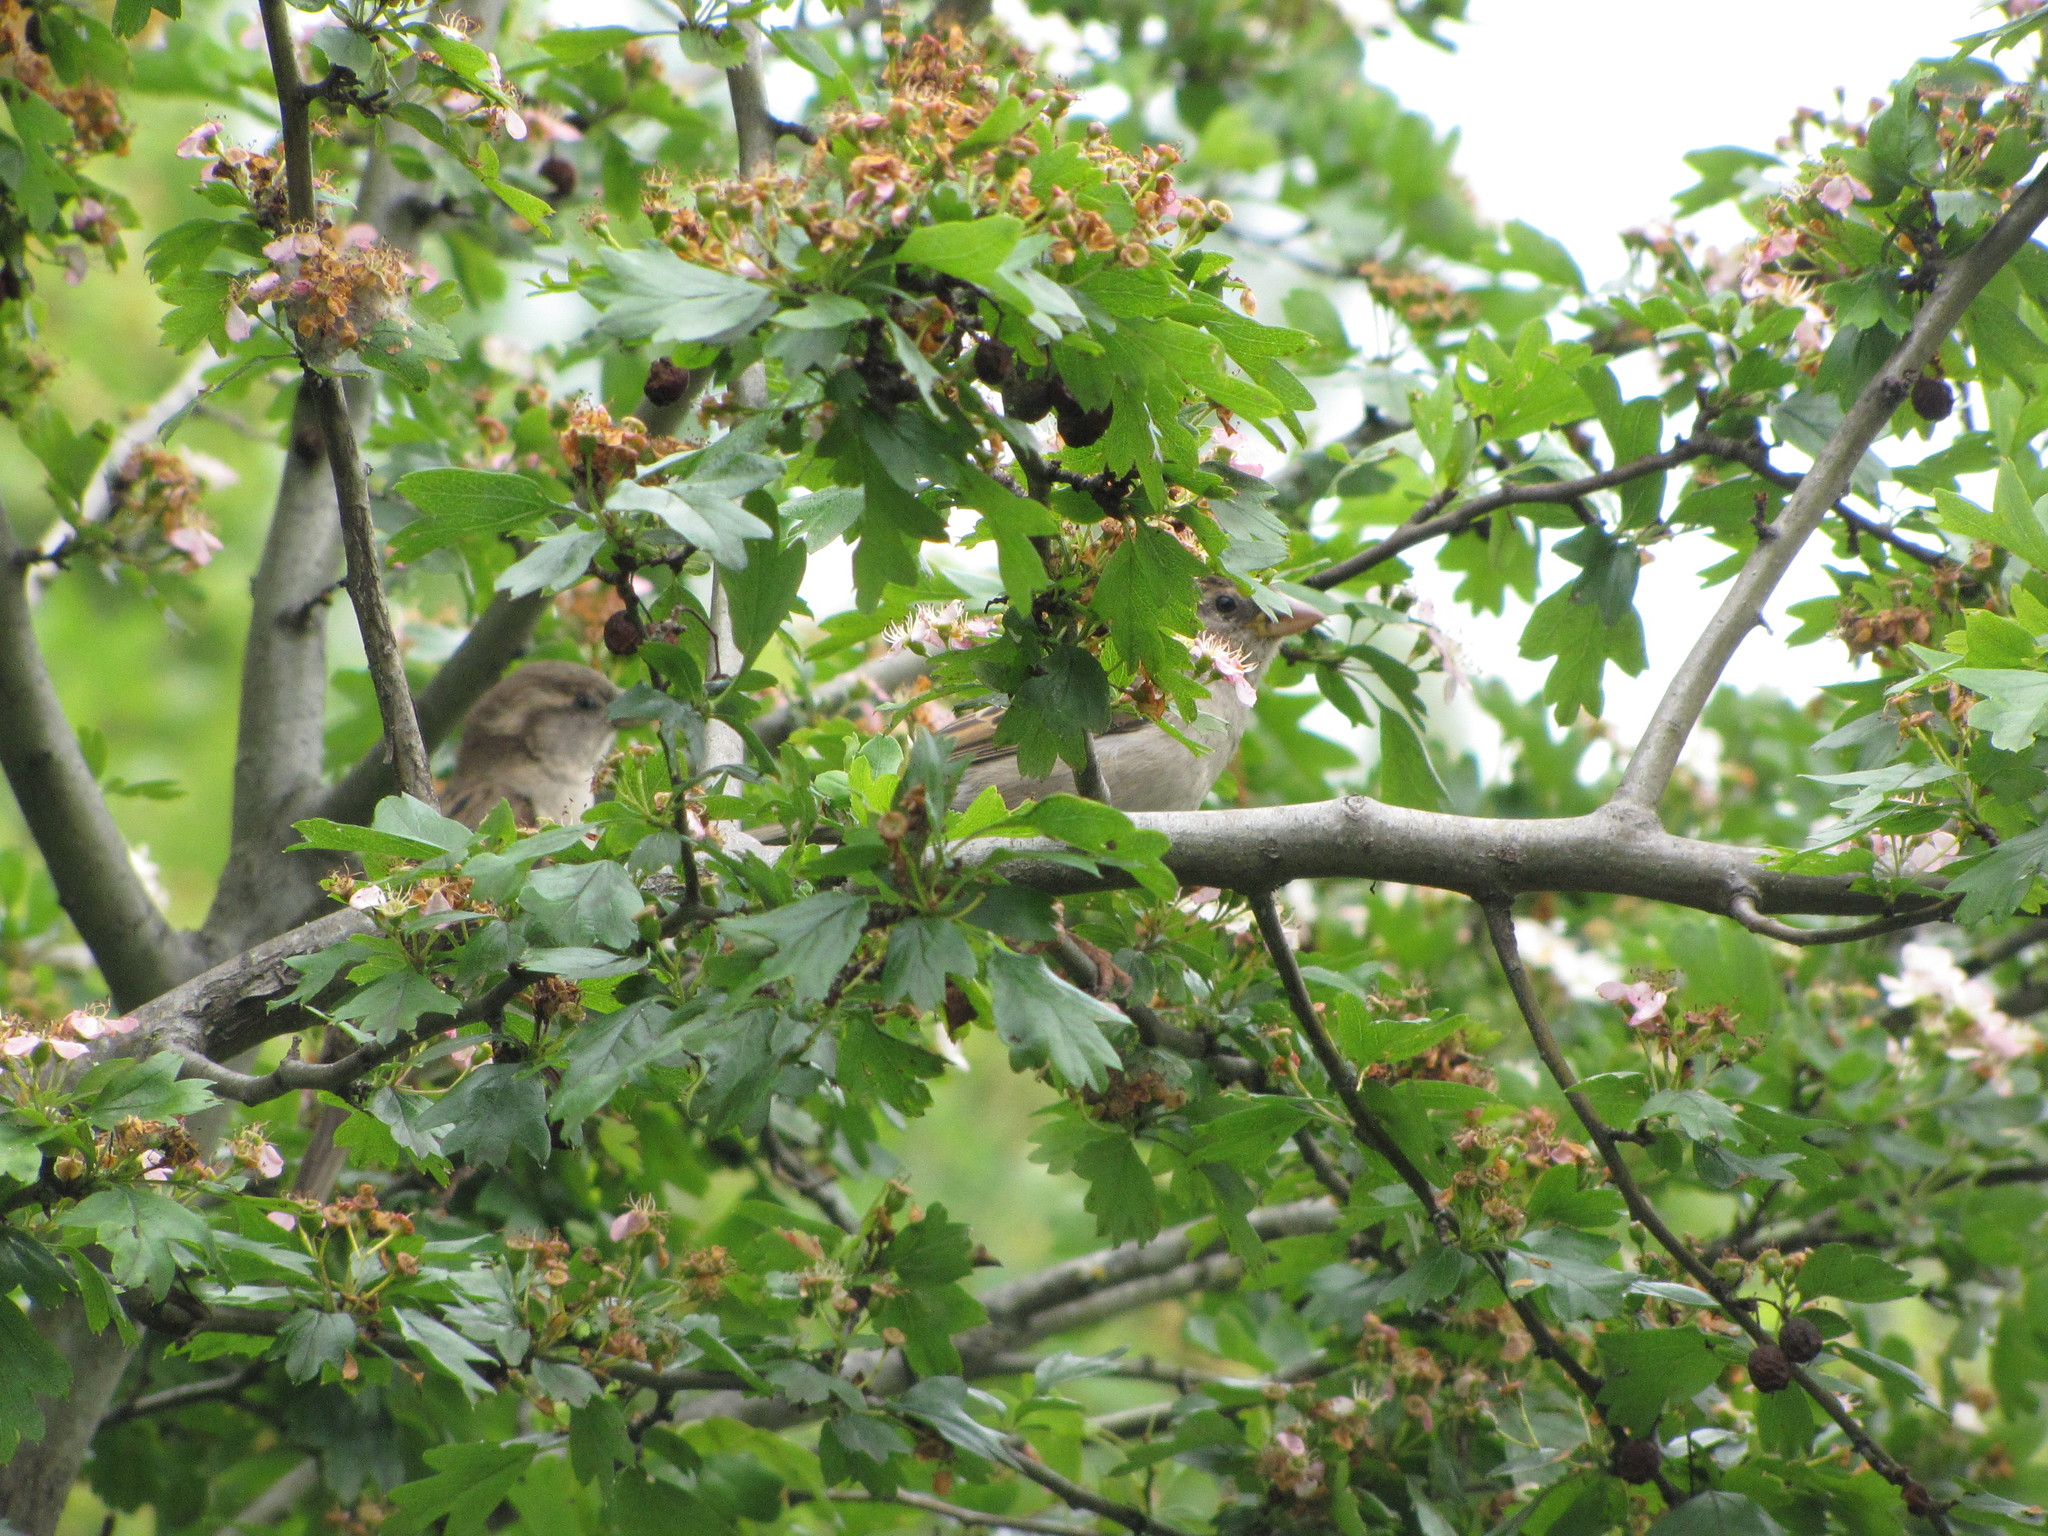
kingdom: Animalia
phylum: Chordata
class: Aves
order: Passeriformes
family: Passeridae
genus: Passer
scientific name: Passer domesticus
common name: House sparrow
